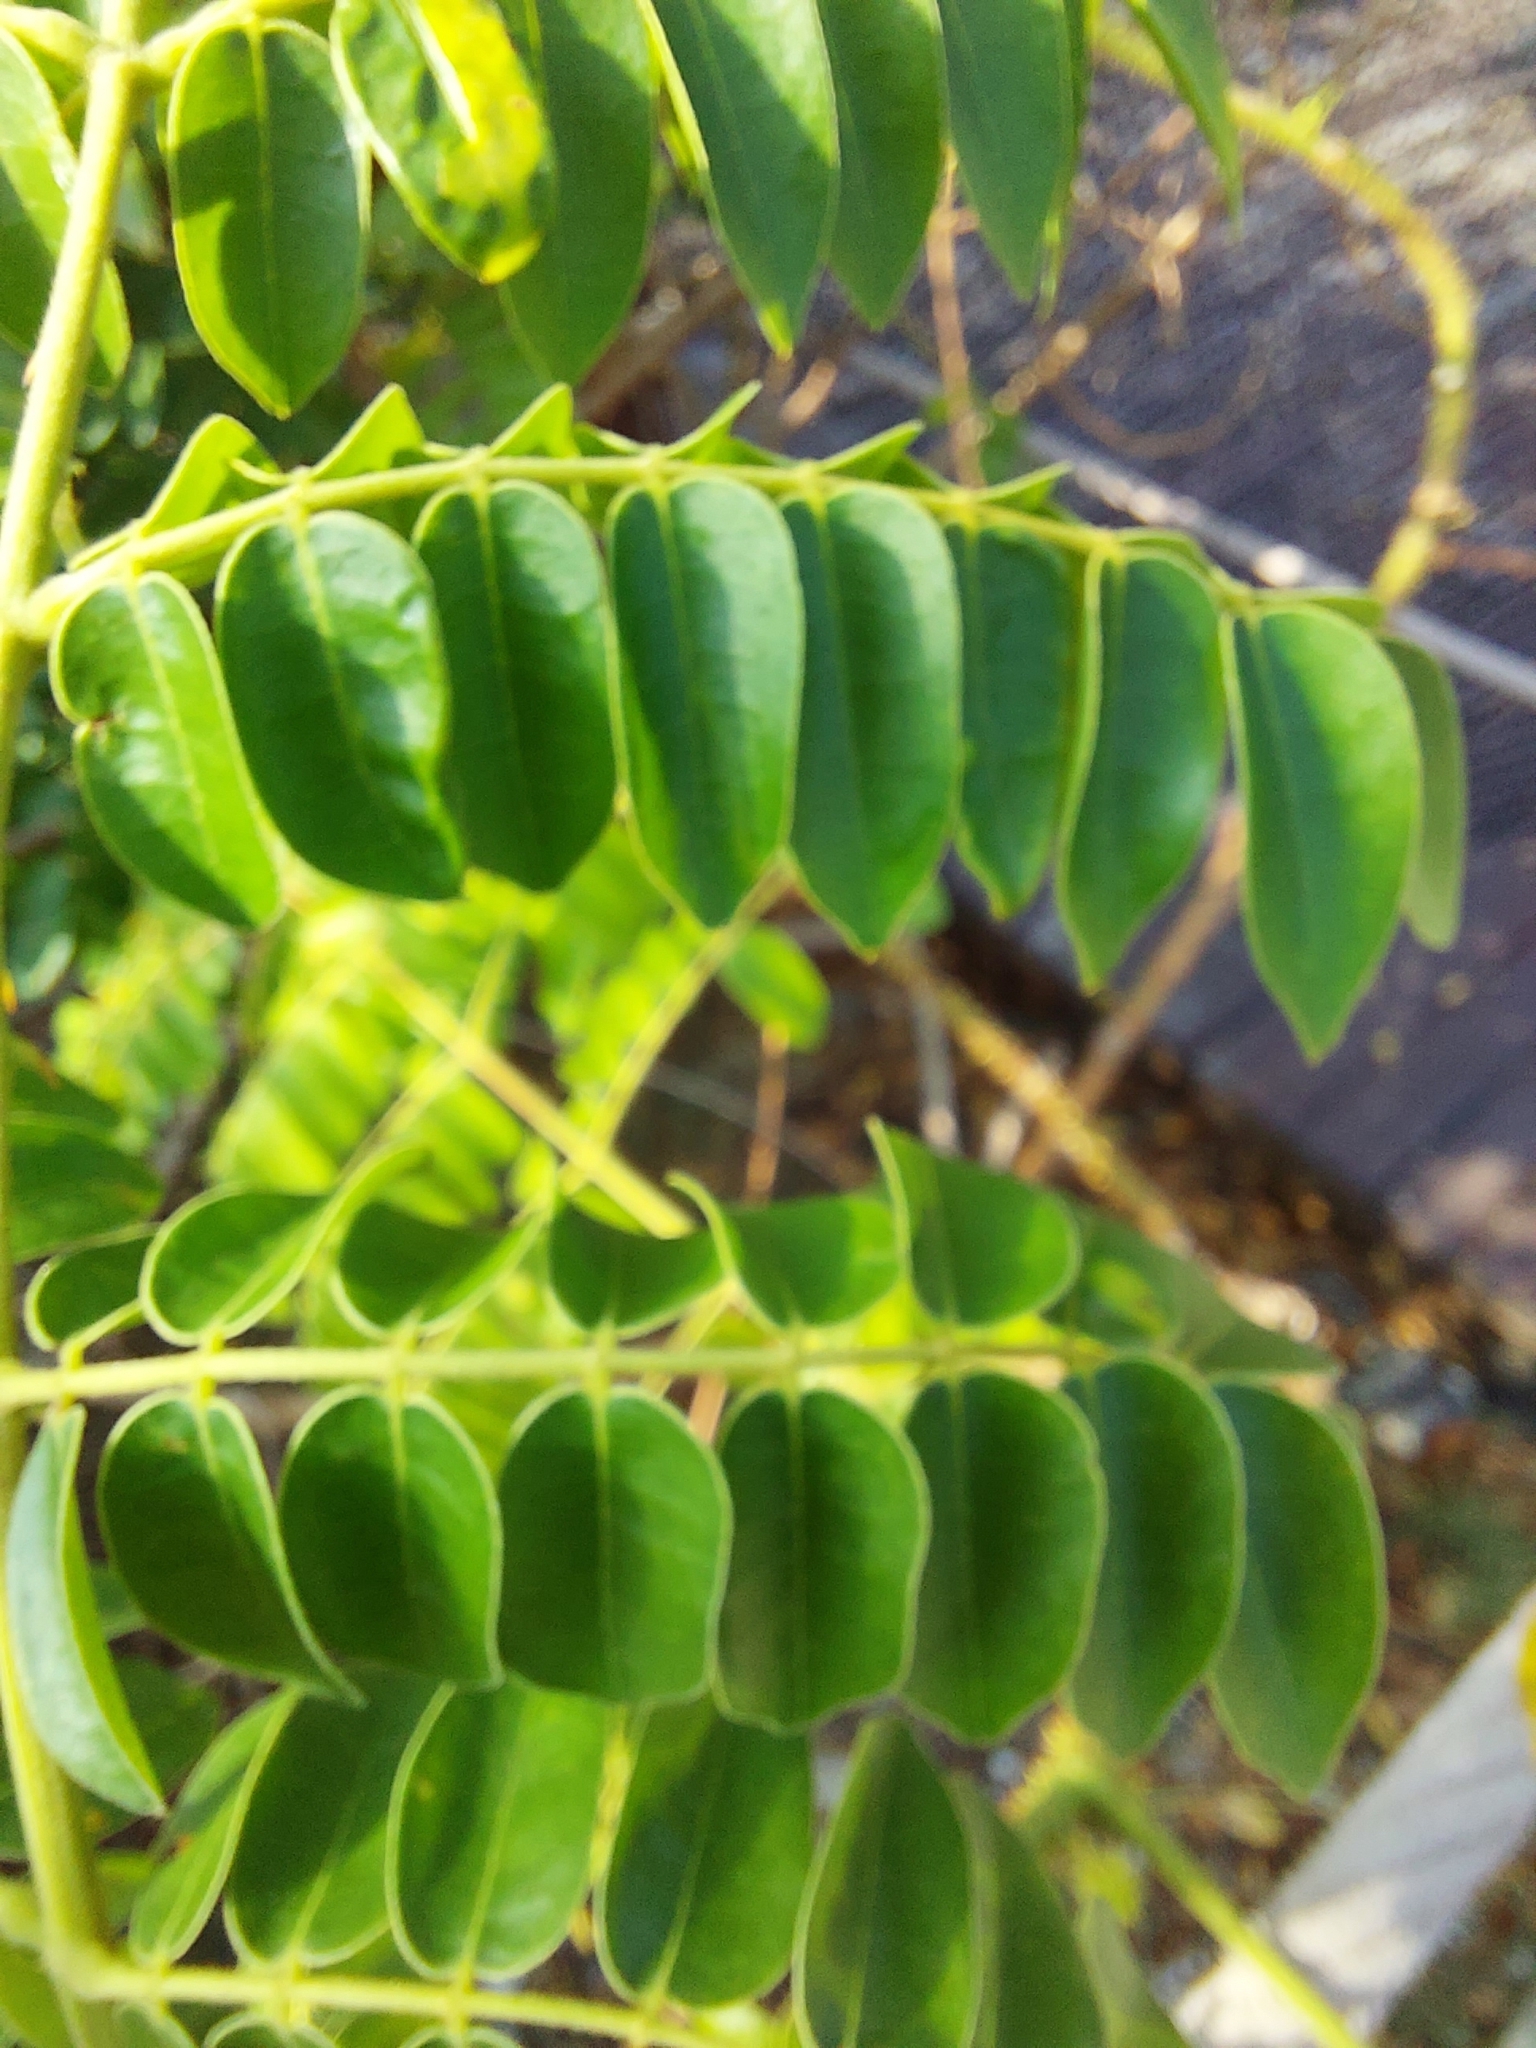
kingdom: Plantae
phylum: Tracheophyta
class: Magnoliopsida
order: Fabales
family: Fabaceae
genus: Guilandina
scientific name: Guilandina bonduc
